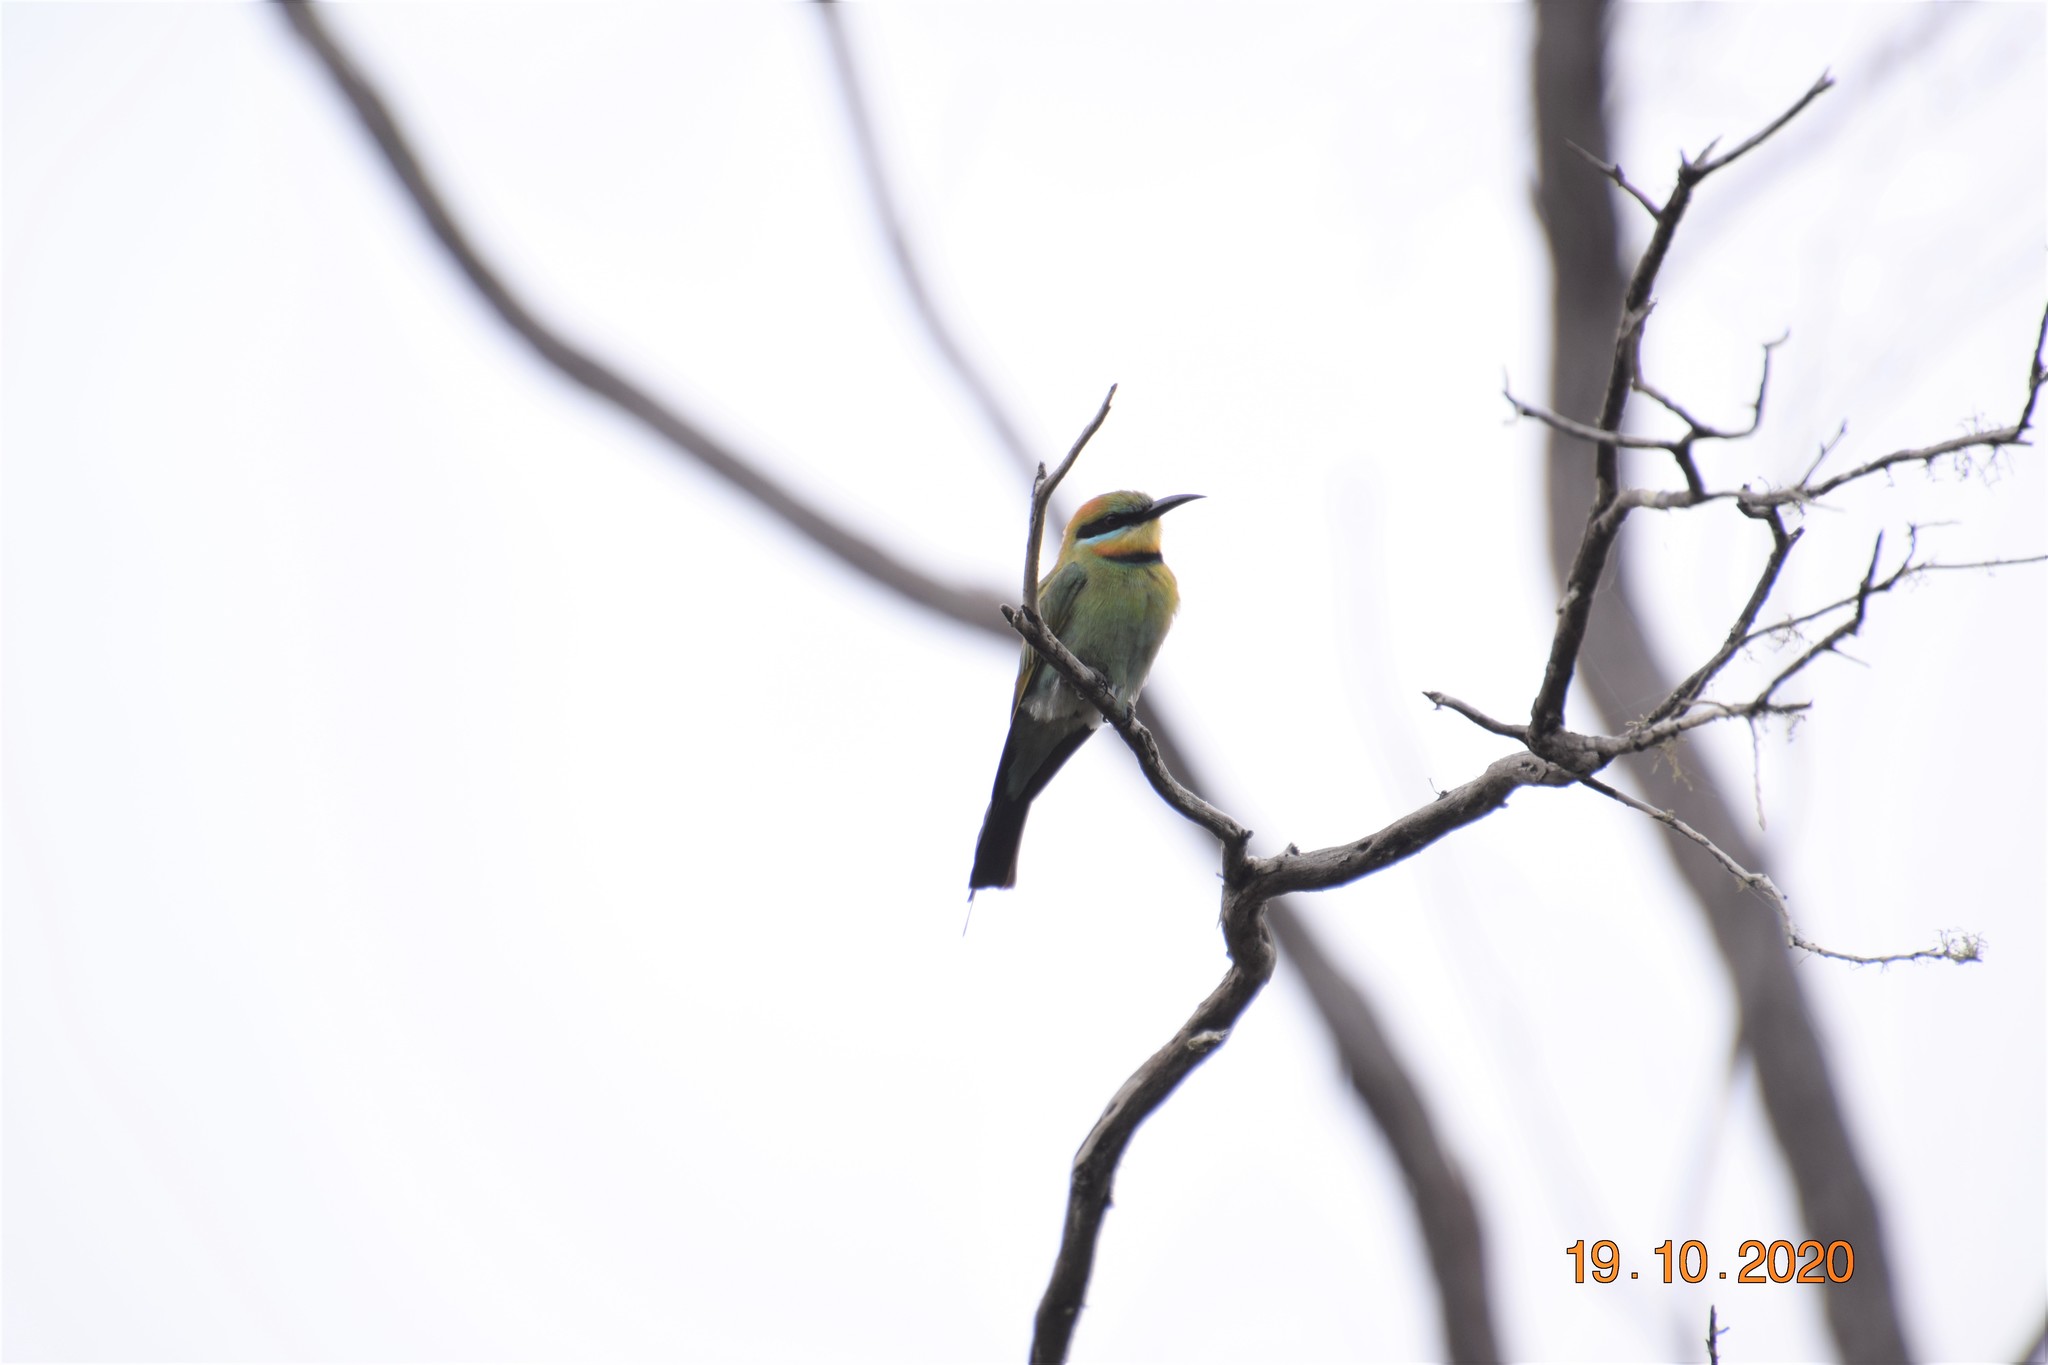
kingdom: Animalia
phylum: Chordata
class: Aves
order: Coraciiformes
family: Meropidae
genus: Merops
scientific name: Merops ornatus
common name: Rainbow bee-eater
